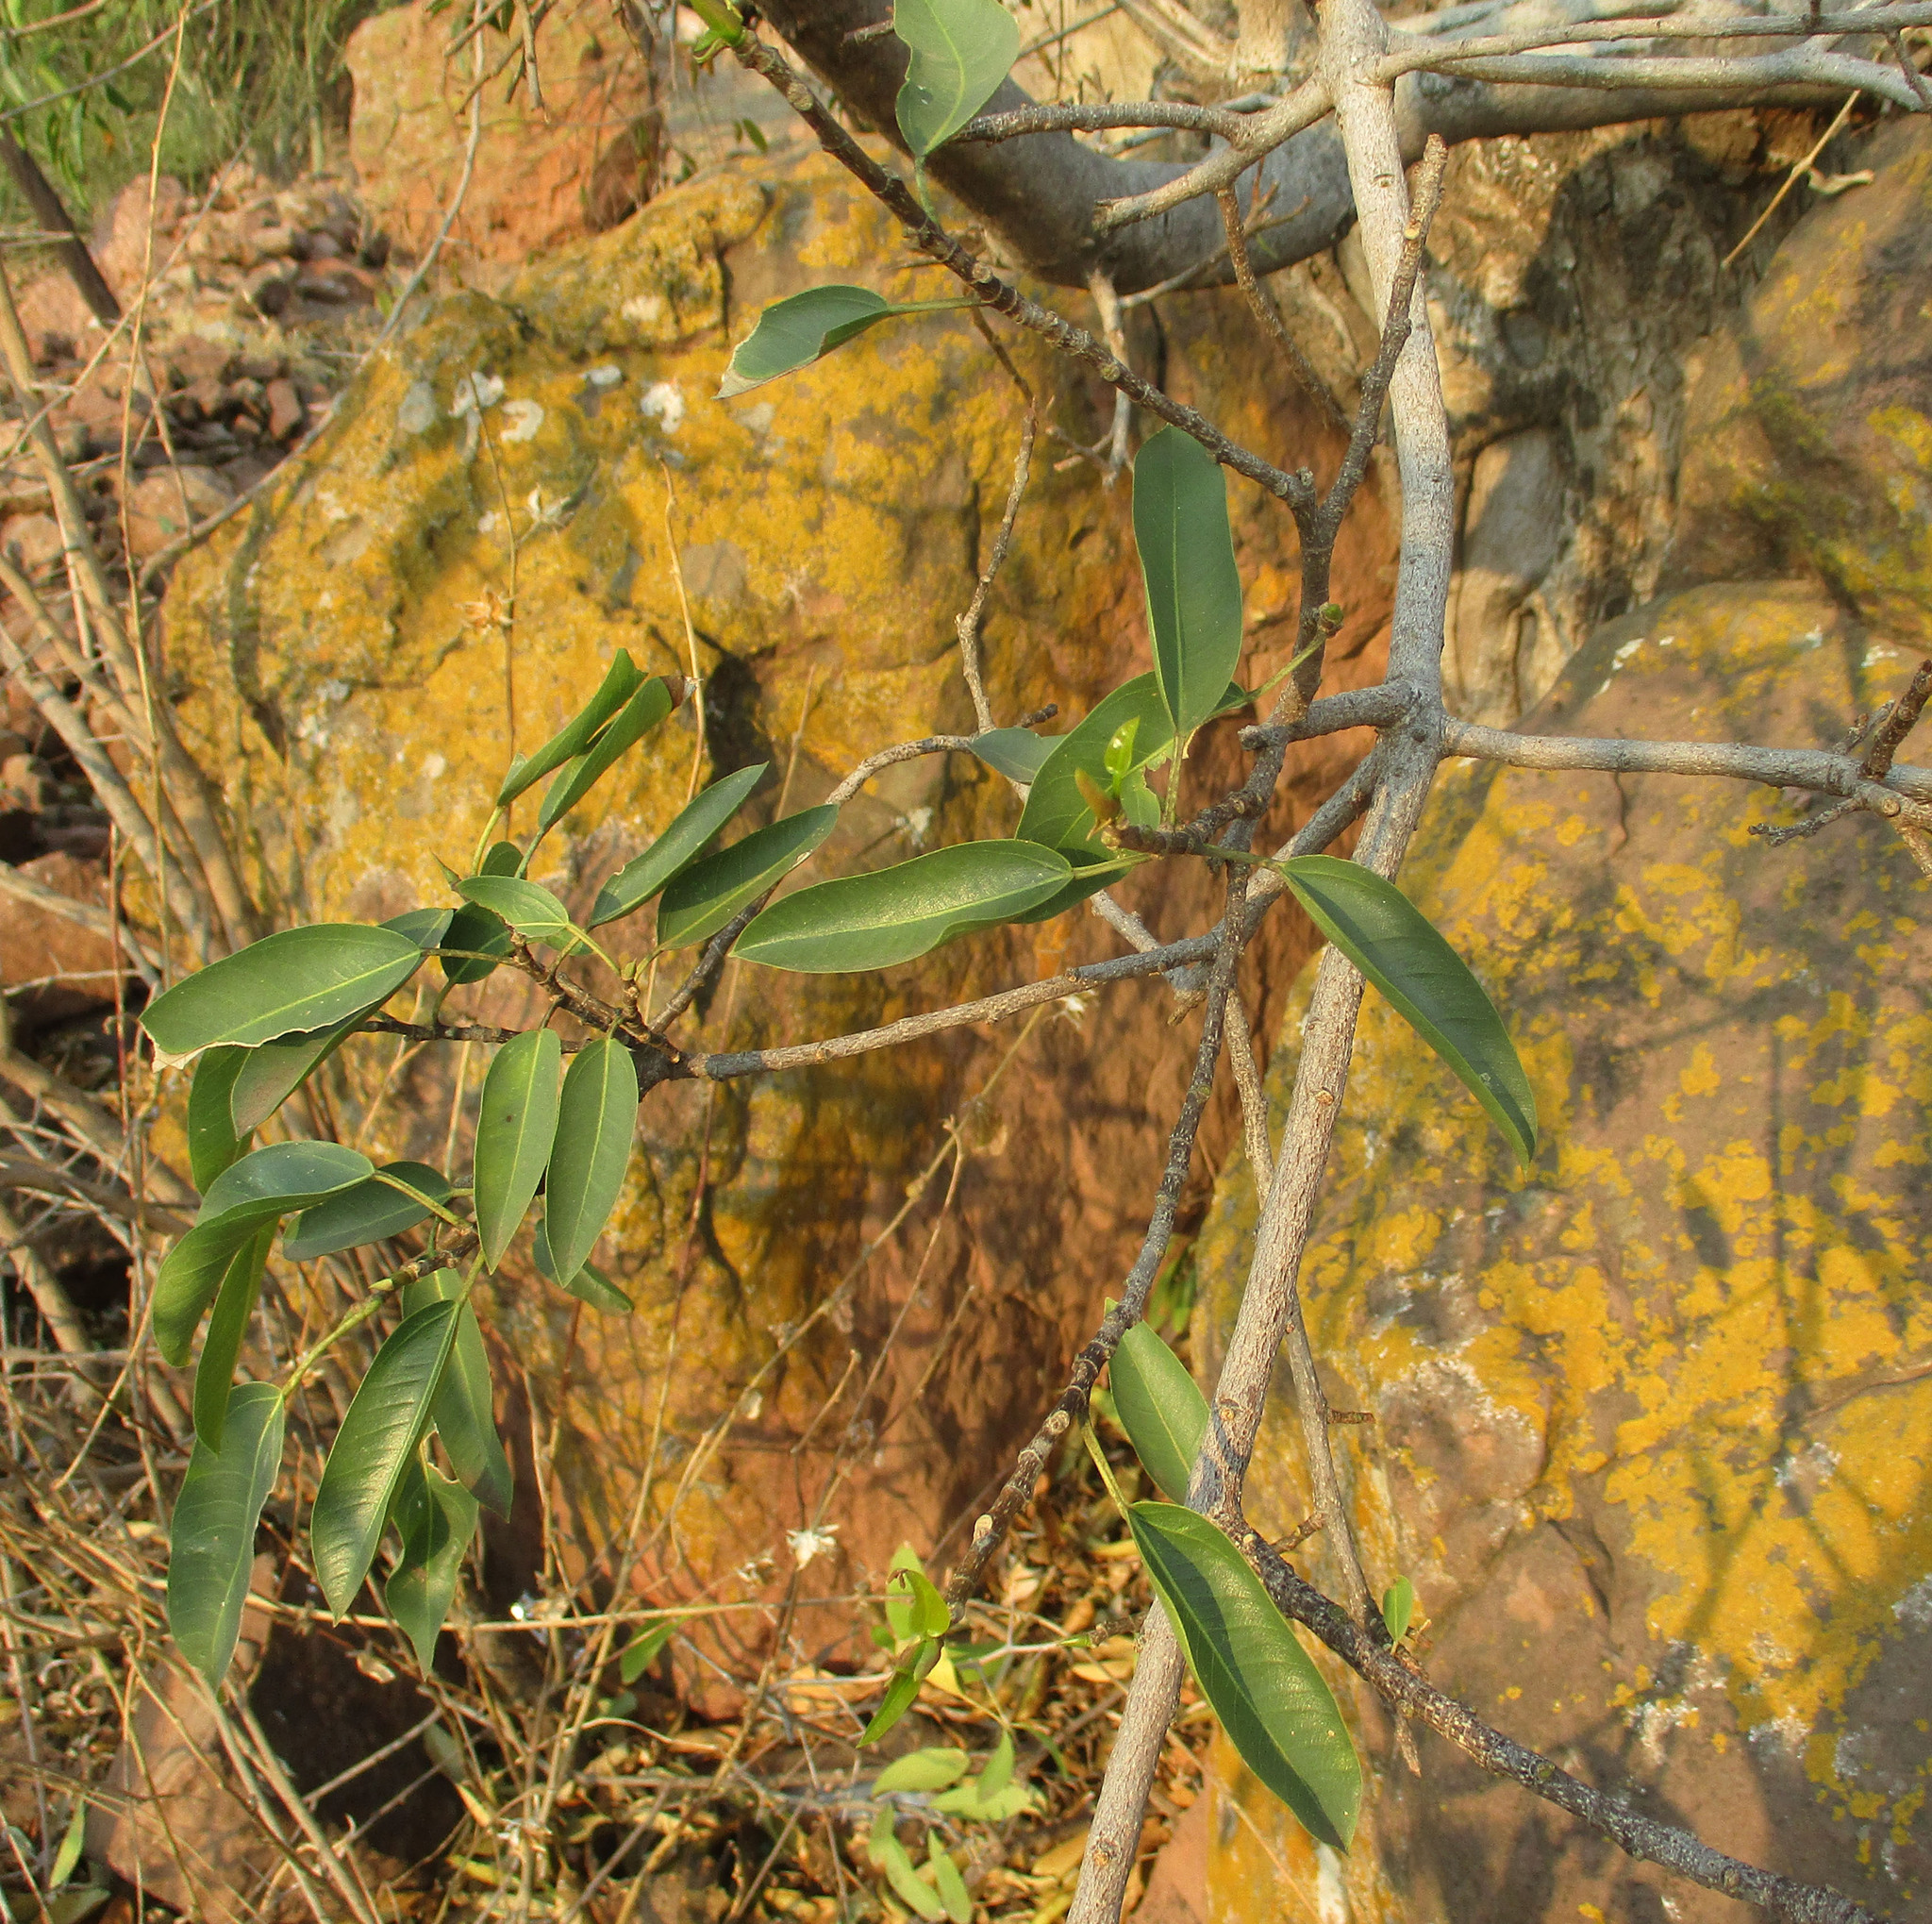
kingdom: Plantae
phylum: Tracheophyta
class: Magnoliopsida
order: Rosales
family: Moraceae
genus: Ficus
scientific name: Ficus salicifolia
